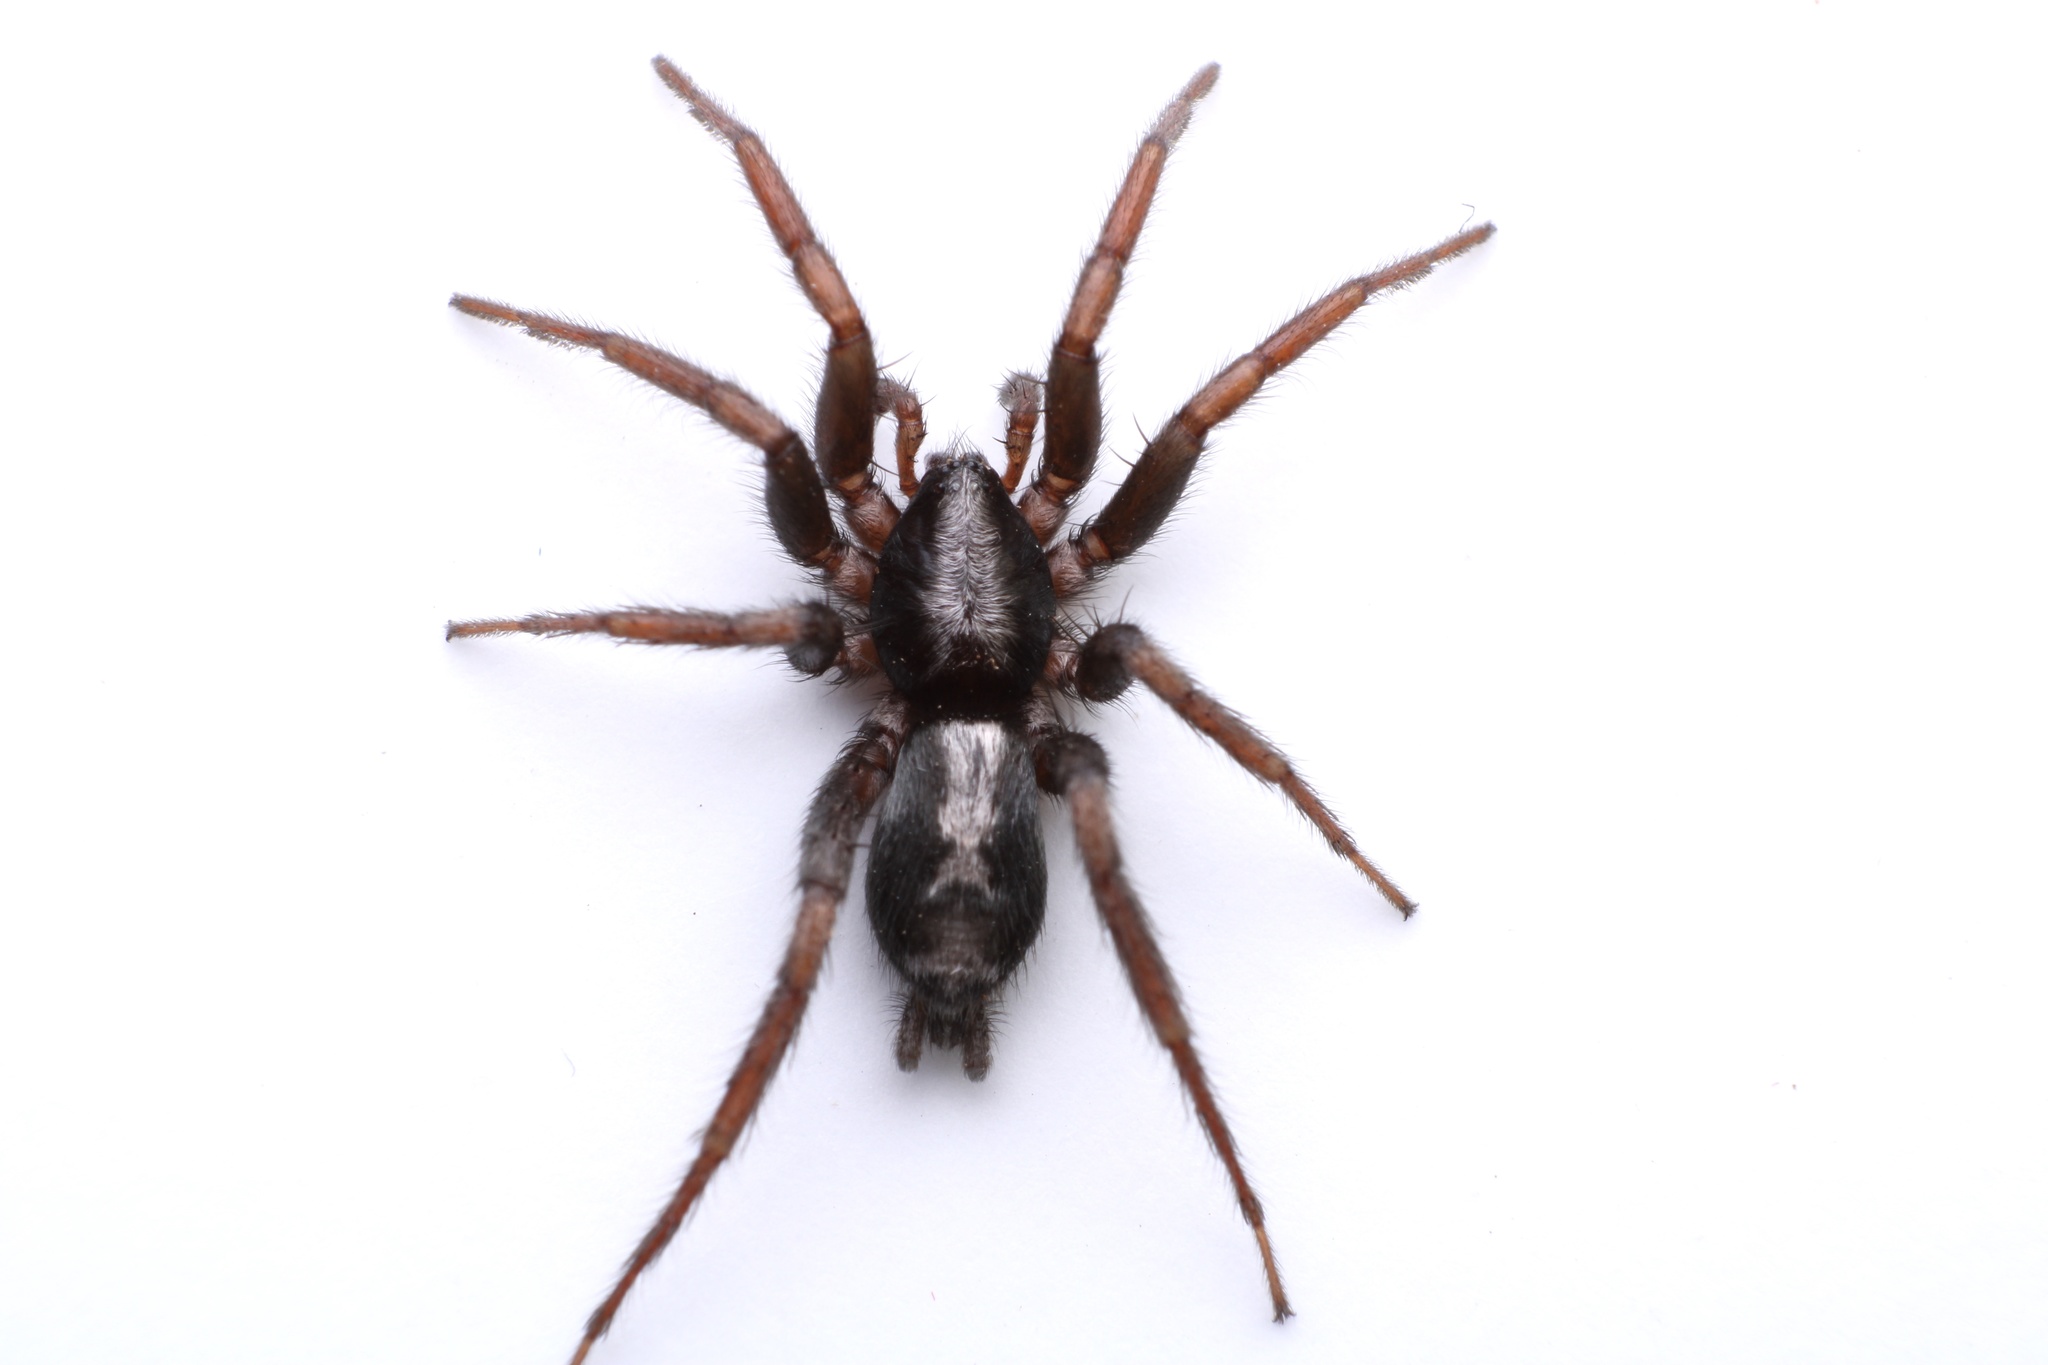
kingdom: Animalia
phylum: Arthropoda
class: Arachnida
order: Araneae
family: Gnaphosidae
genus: Herpyllus
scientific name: Herpyllus ecclesiasticus
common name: Eastern parson spider
